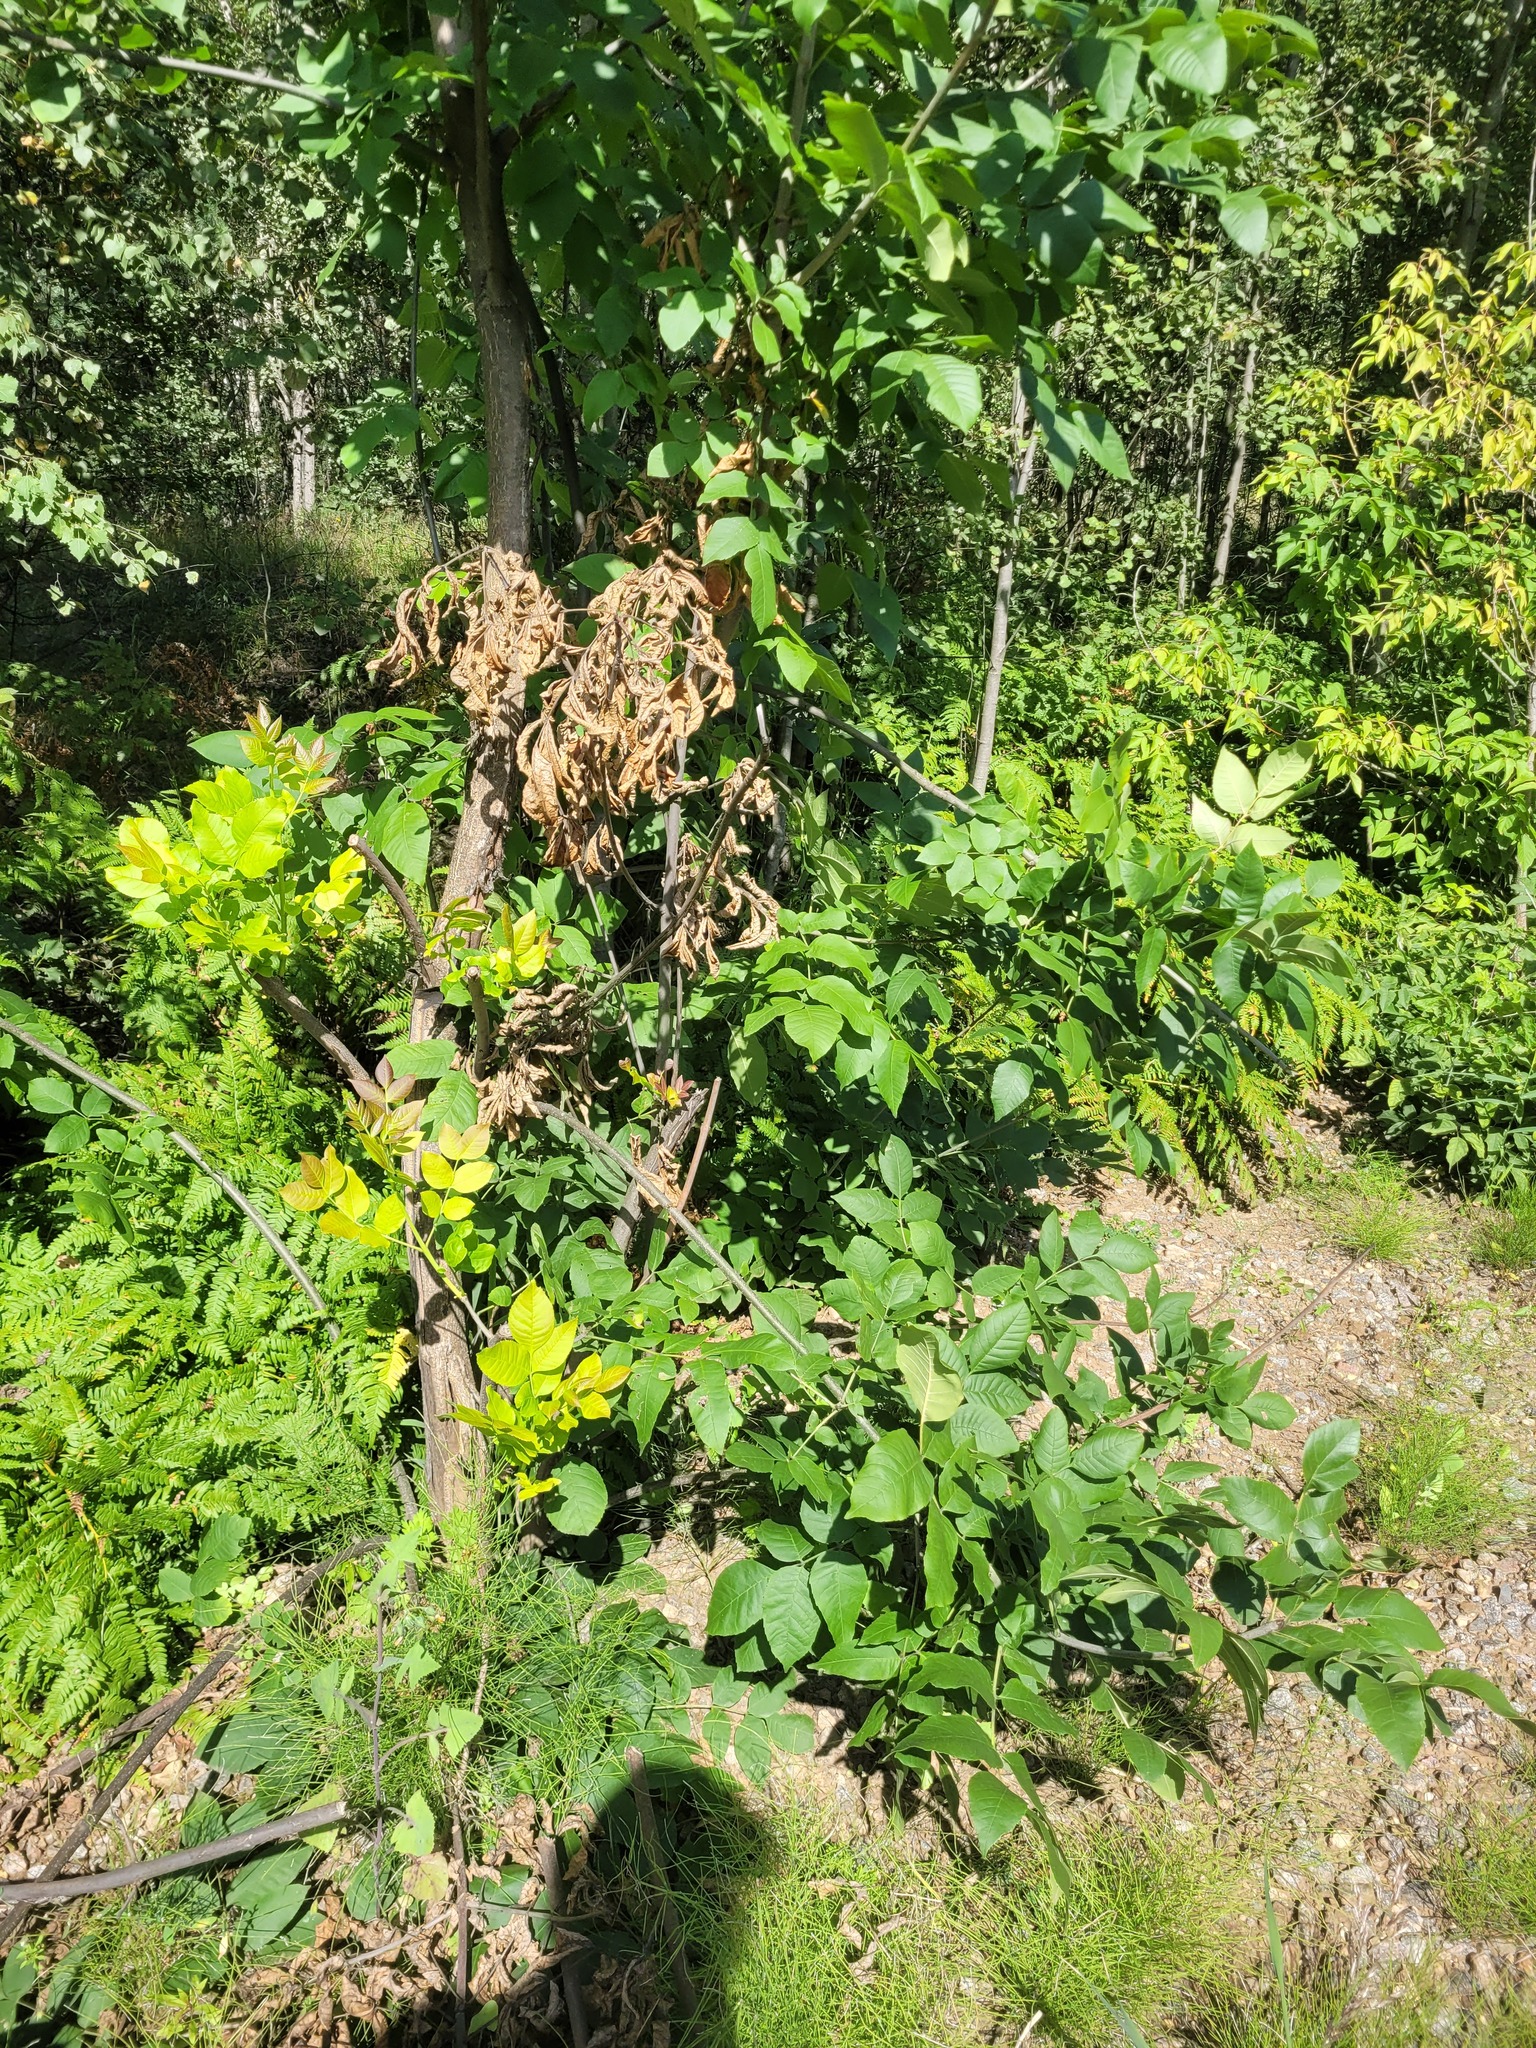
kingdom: Plantae
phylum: Tracheophyta
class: Magnoliopsida
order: Lamiales
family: Oleaceae
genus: Fraxinus
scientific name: Fraxinus pennsylvanica
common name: Green ash
